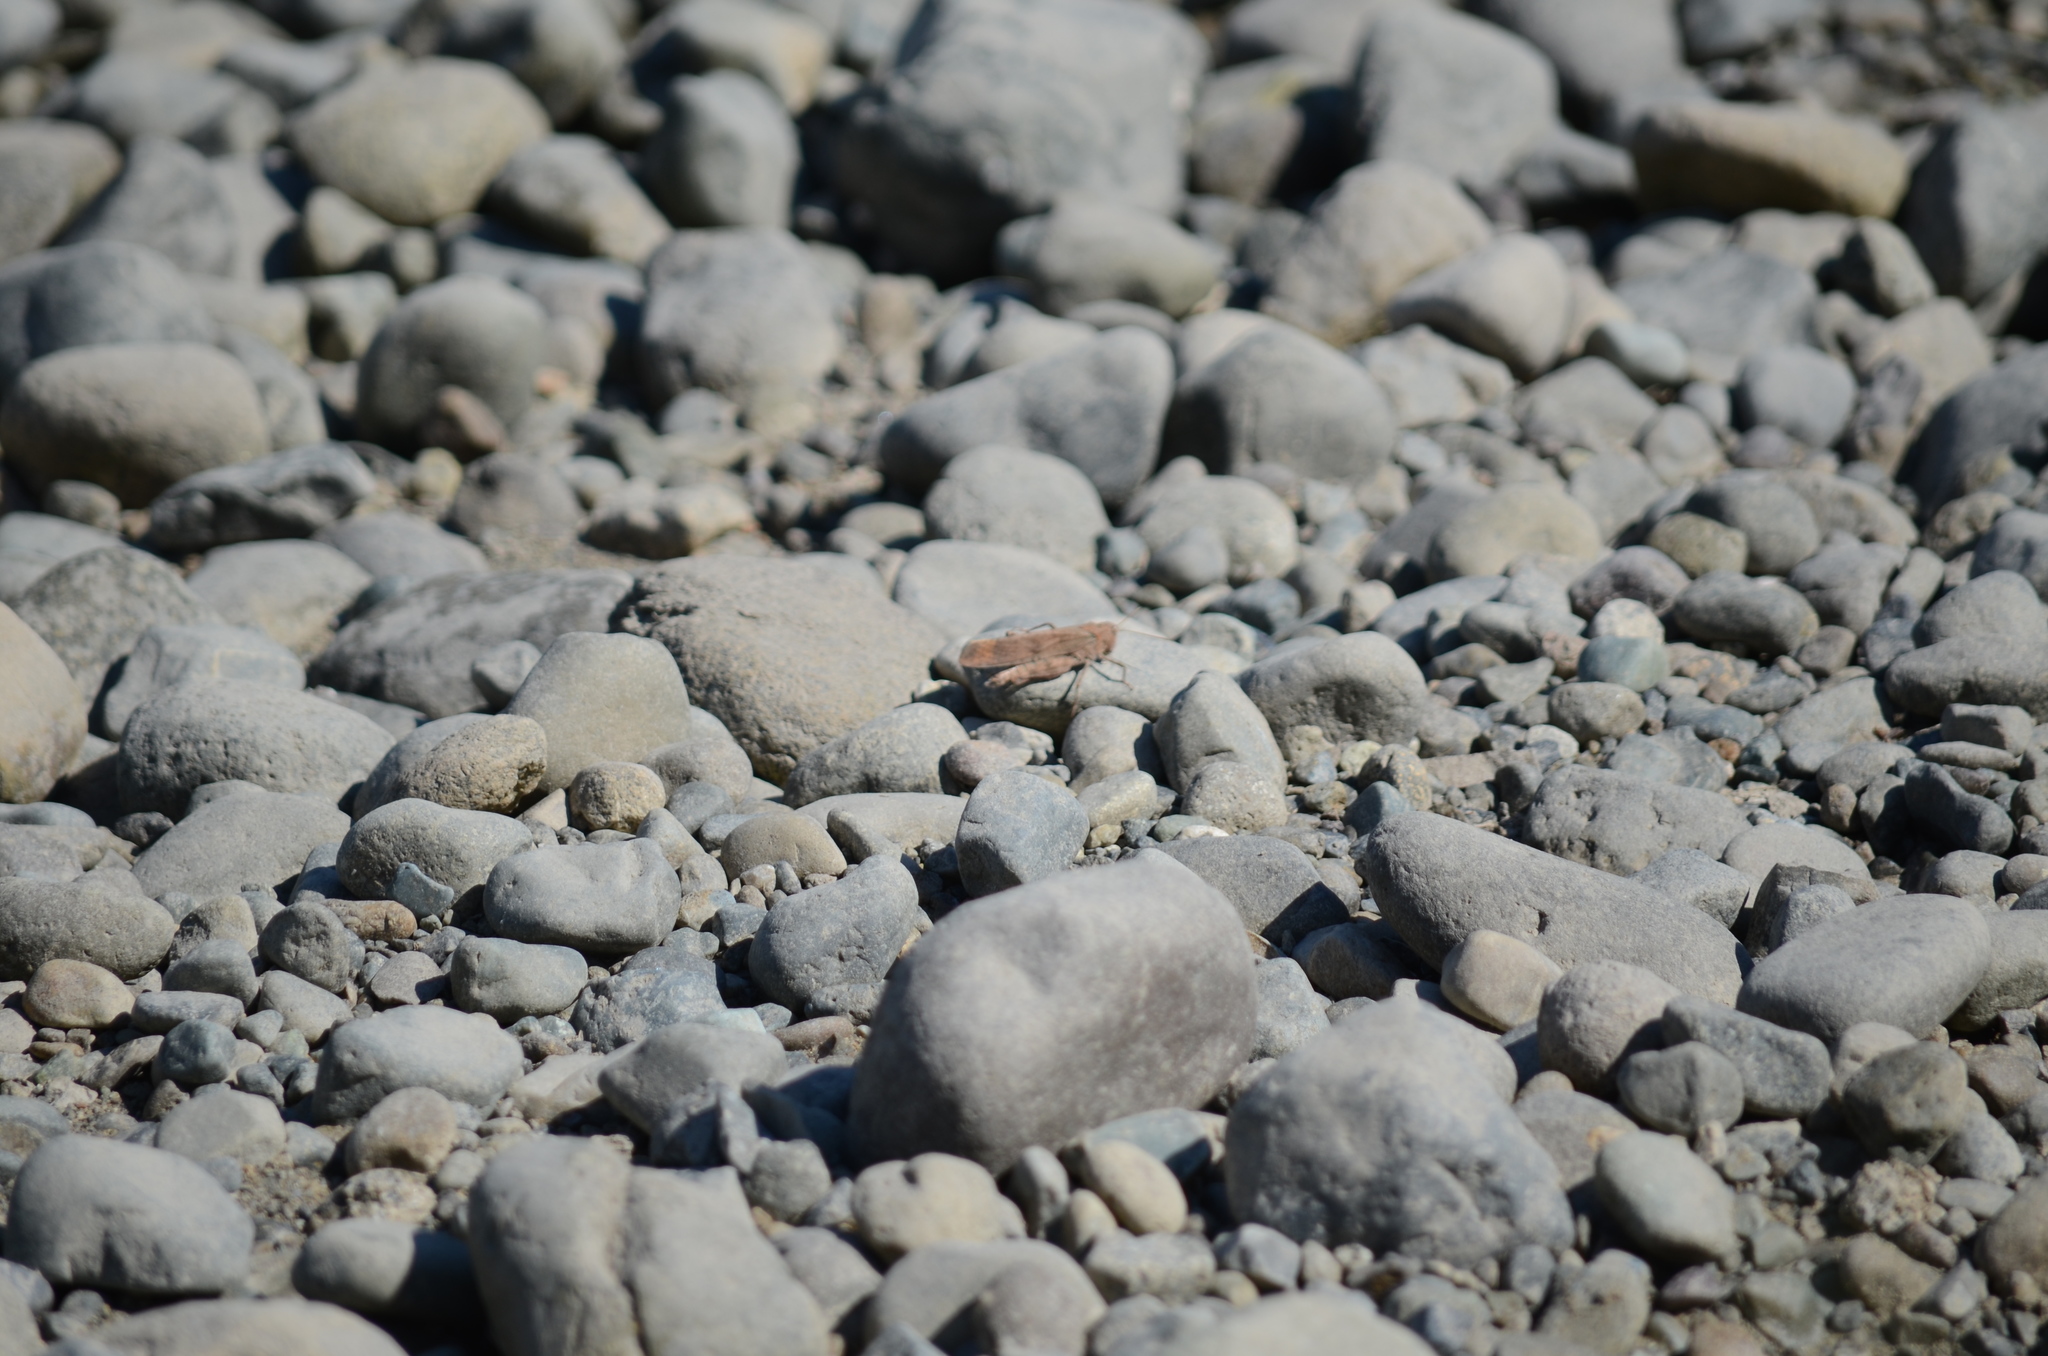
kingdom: Animalia
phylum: Arthropoda
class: Insecta
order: Orthoptera
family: Acrididae
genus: Dissosteira
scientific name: Dissosteira carolina
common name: Carolina grasshopper
